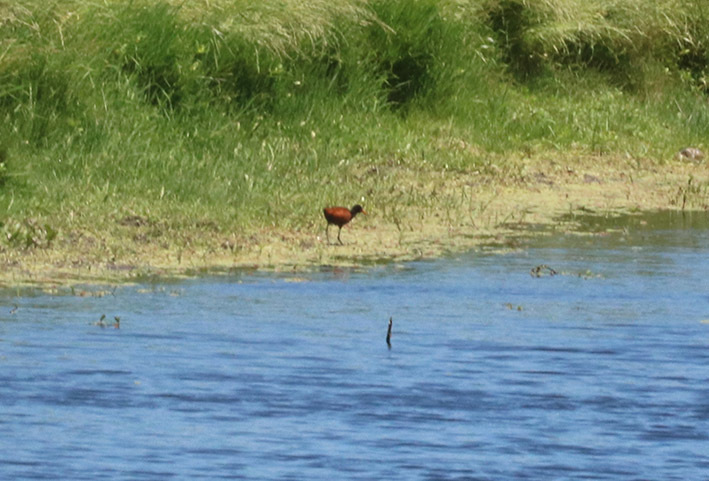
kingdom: Animalia
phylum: Chordata
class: Aves
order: Charadriiformes
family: Jacanidae
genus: Jacana
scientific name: Jacana jacana
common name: Wattled jacana
